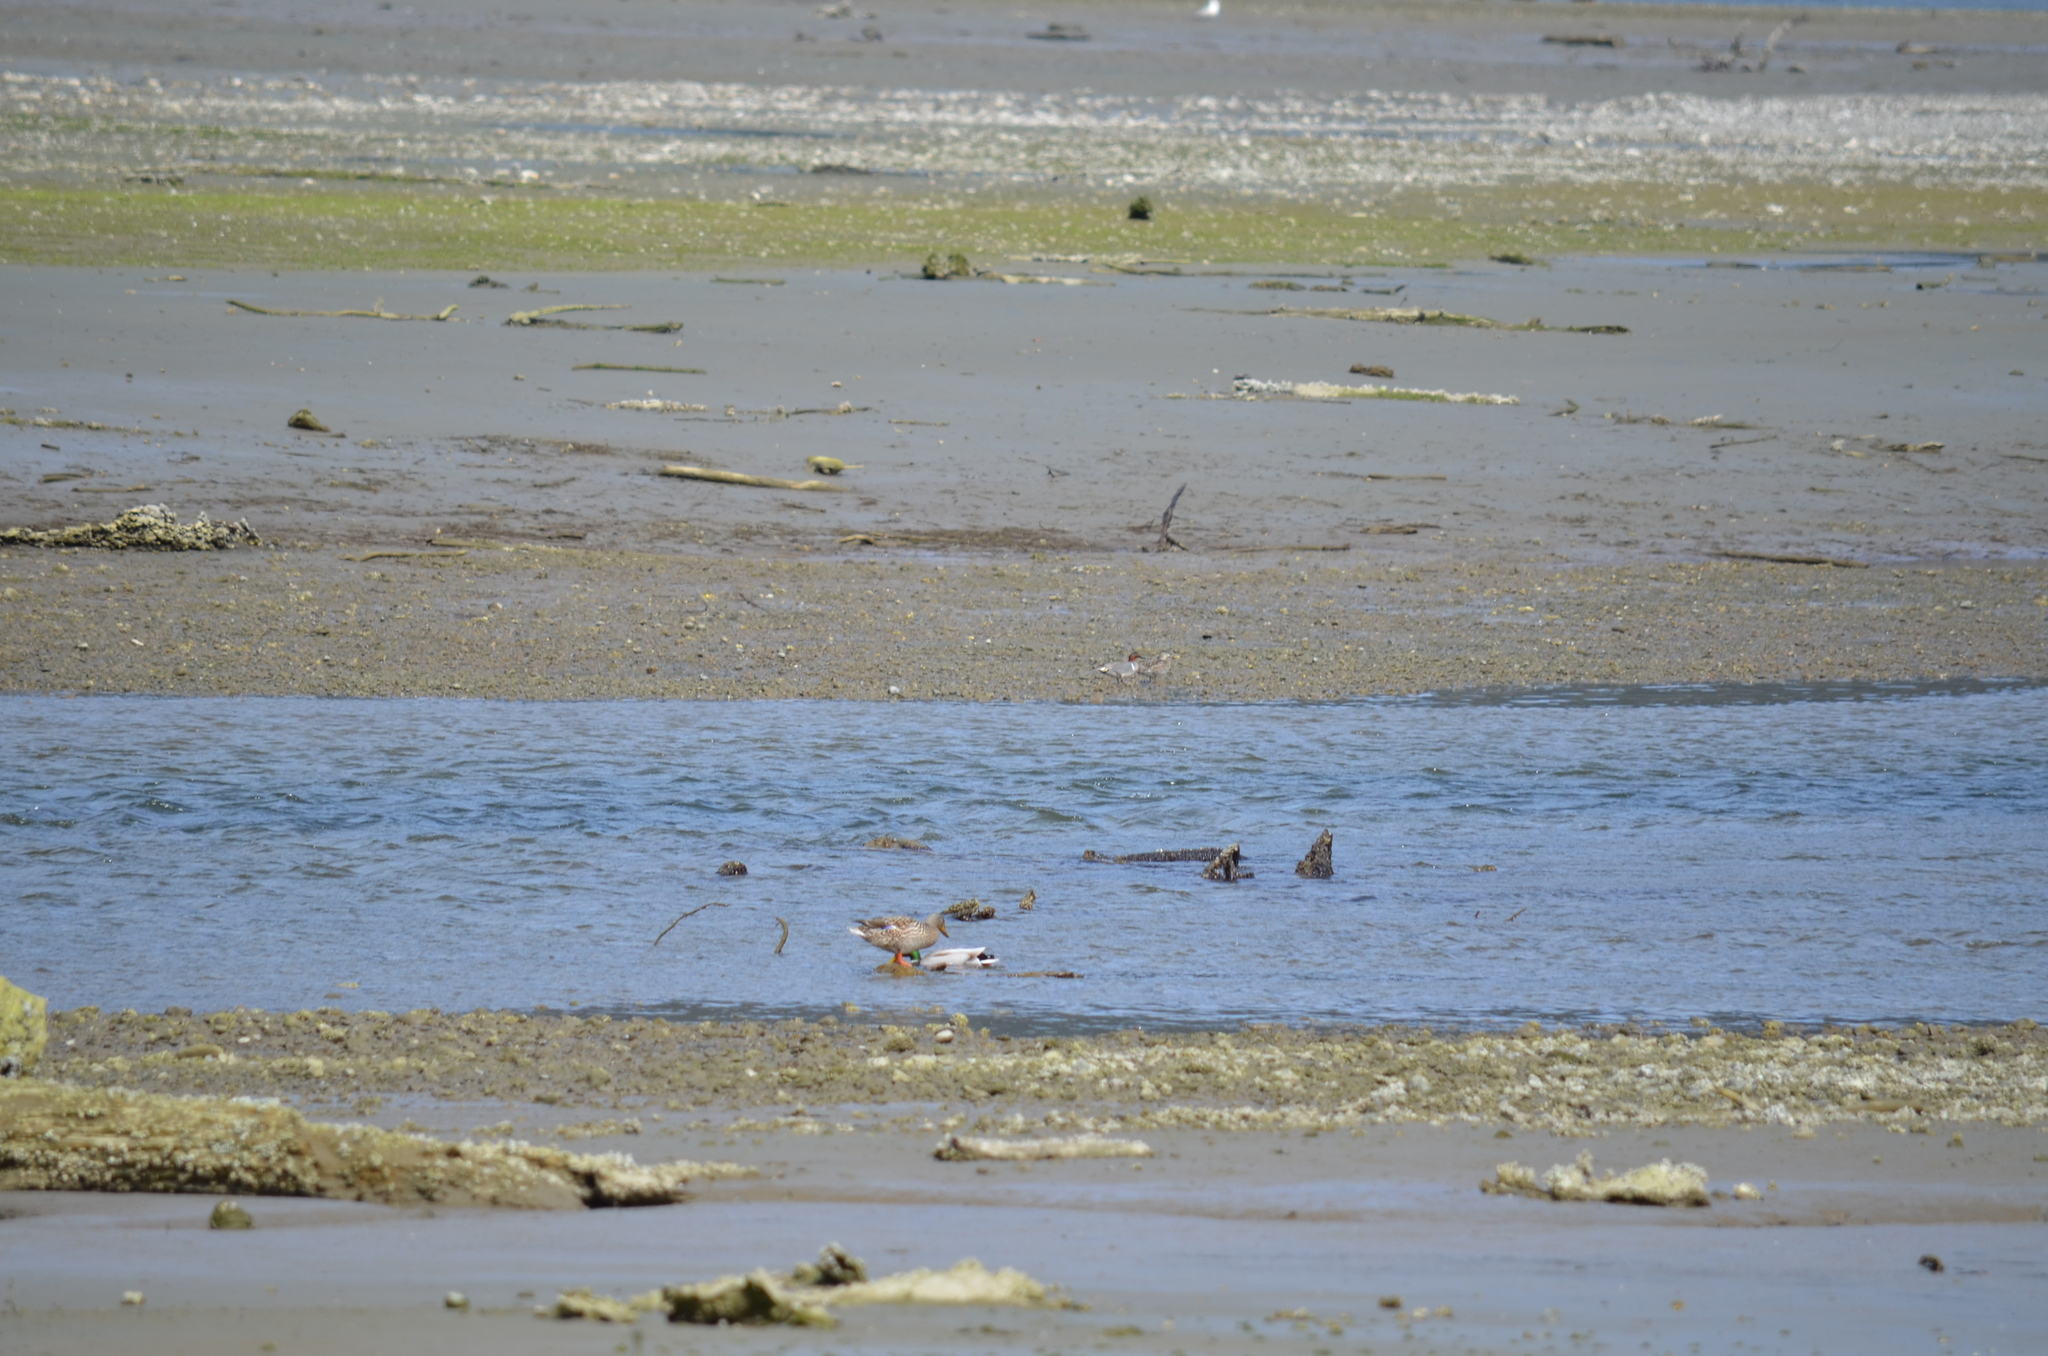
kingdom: Animalia
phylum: Chordata
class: Aves
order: Anseriformes
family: Anatidae
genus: Anas
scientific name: Anas crecca
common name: Eurasian teal
